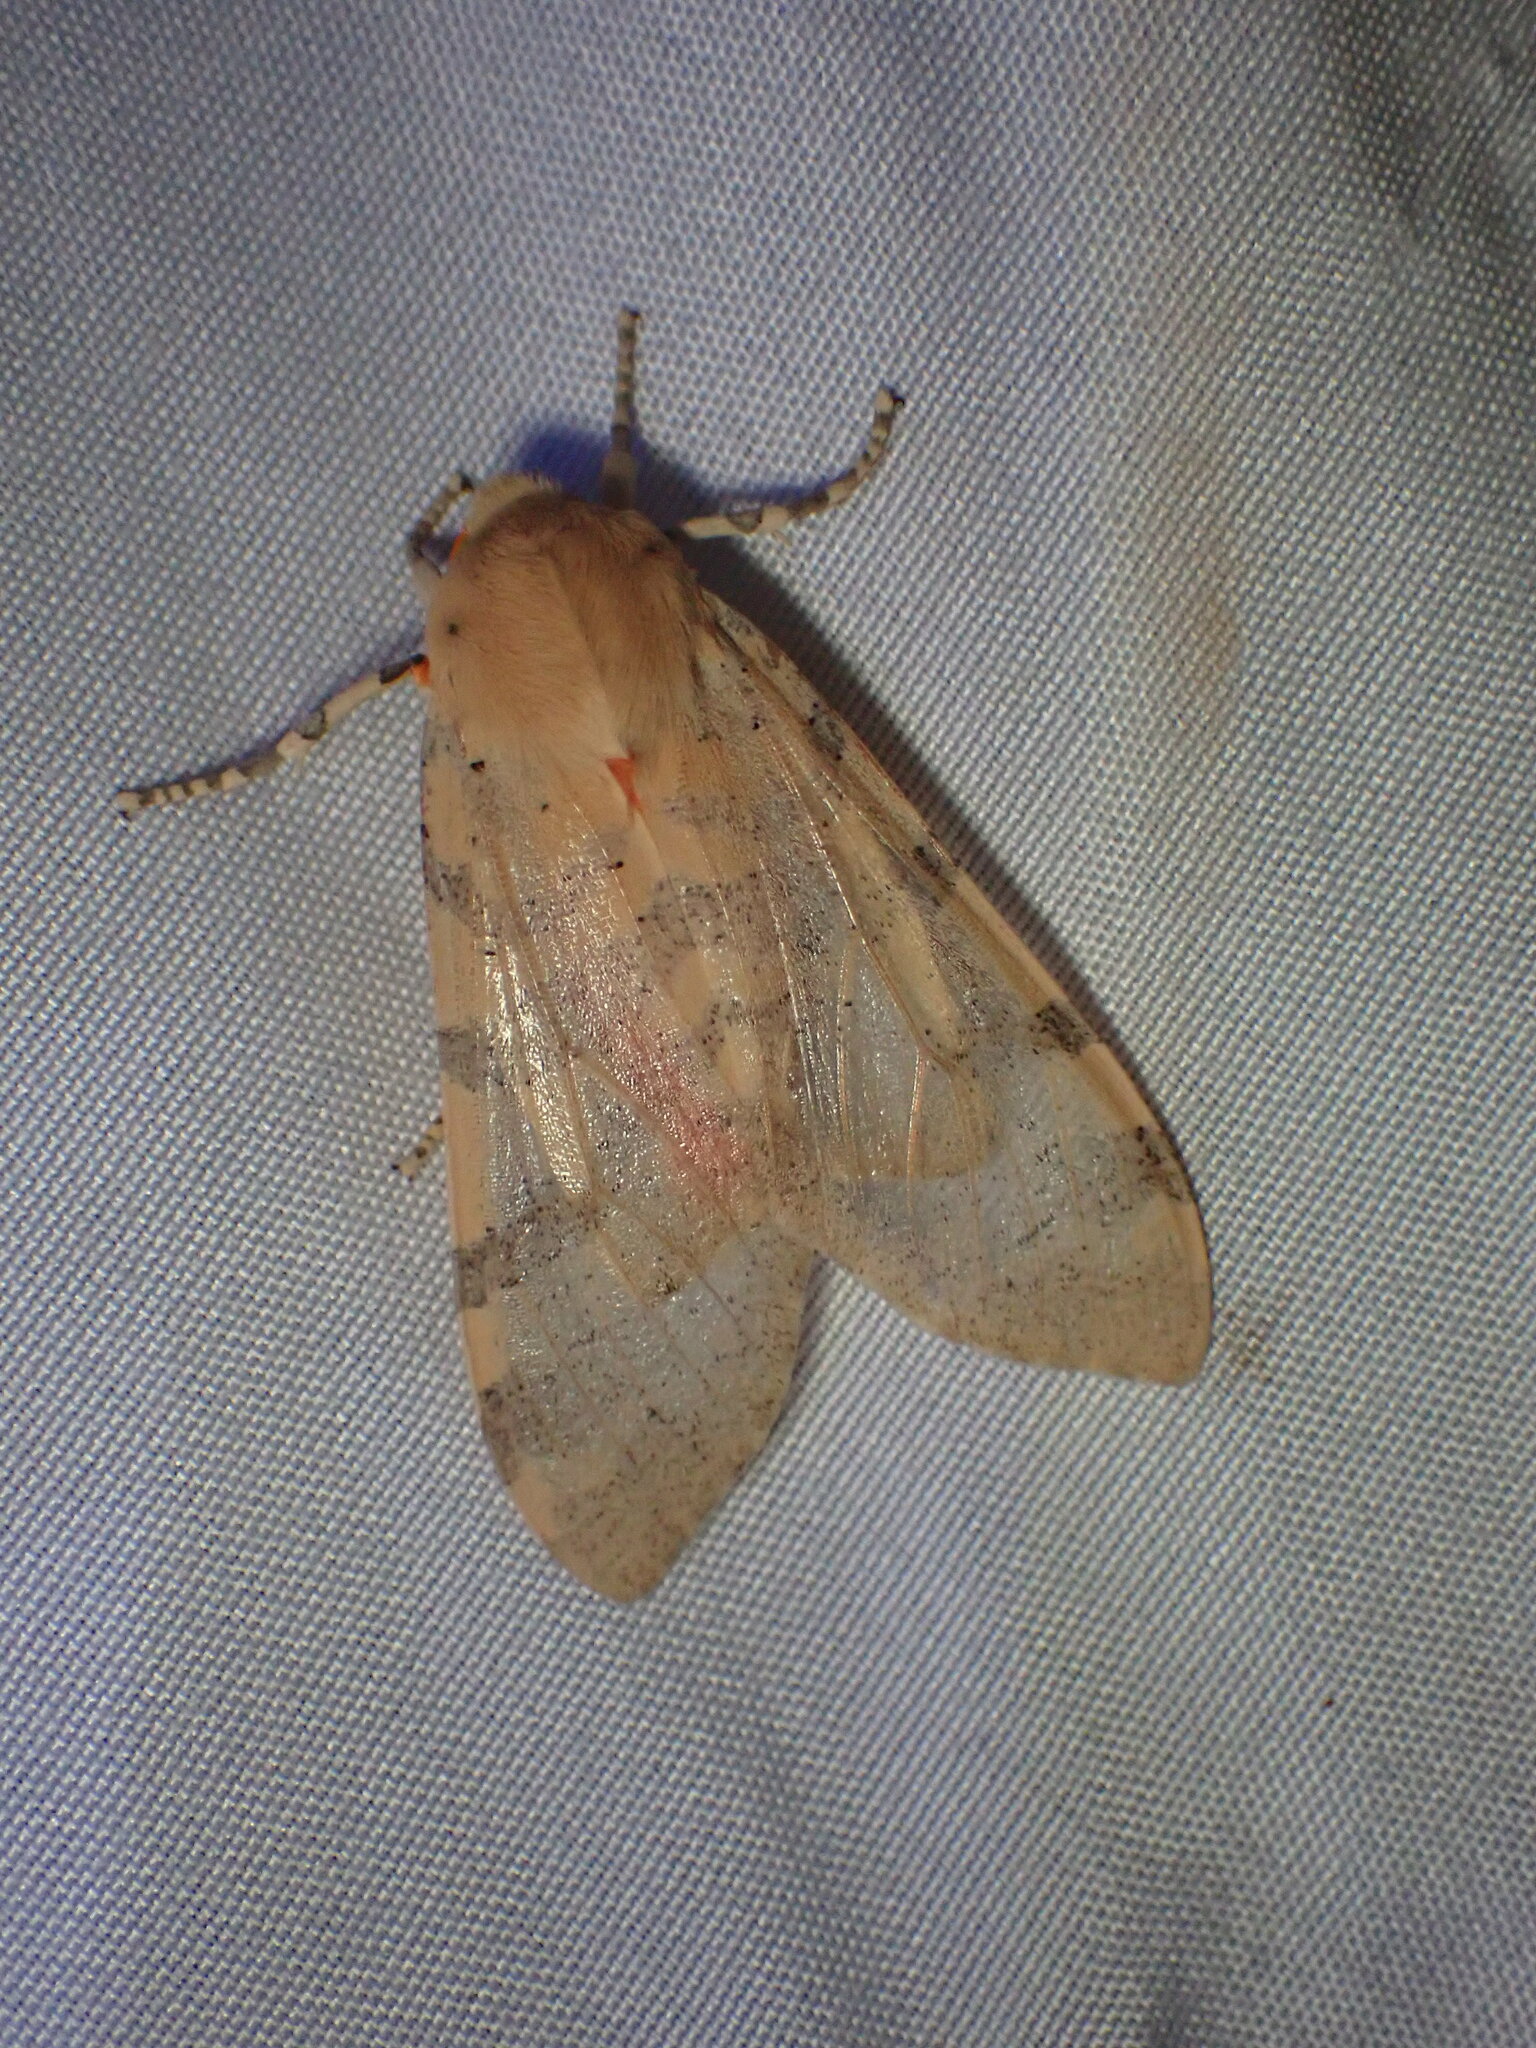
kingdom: Animalia
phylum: Arthropoda
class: Insecta
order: Lepidoptera
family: Erebidae
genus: Hemihyalea
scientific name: Hemihyalea edwardsii
